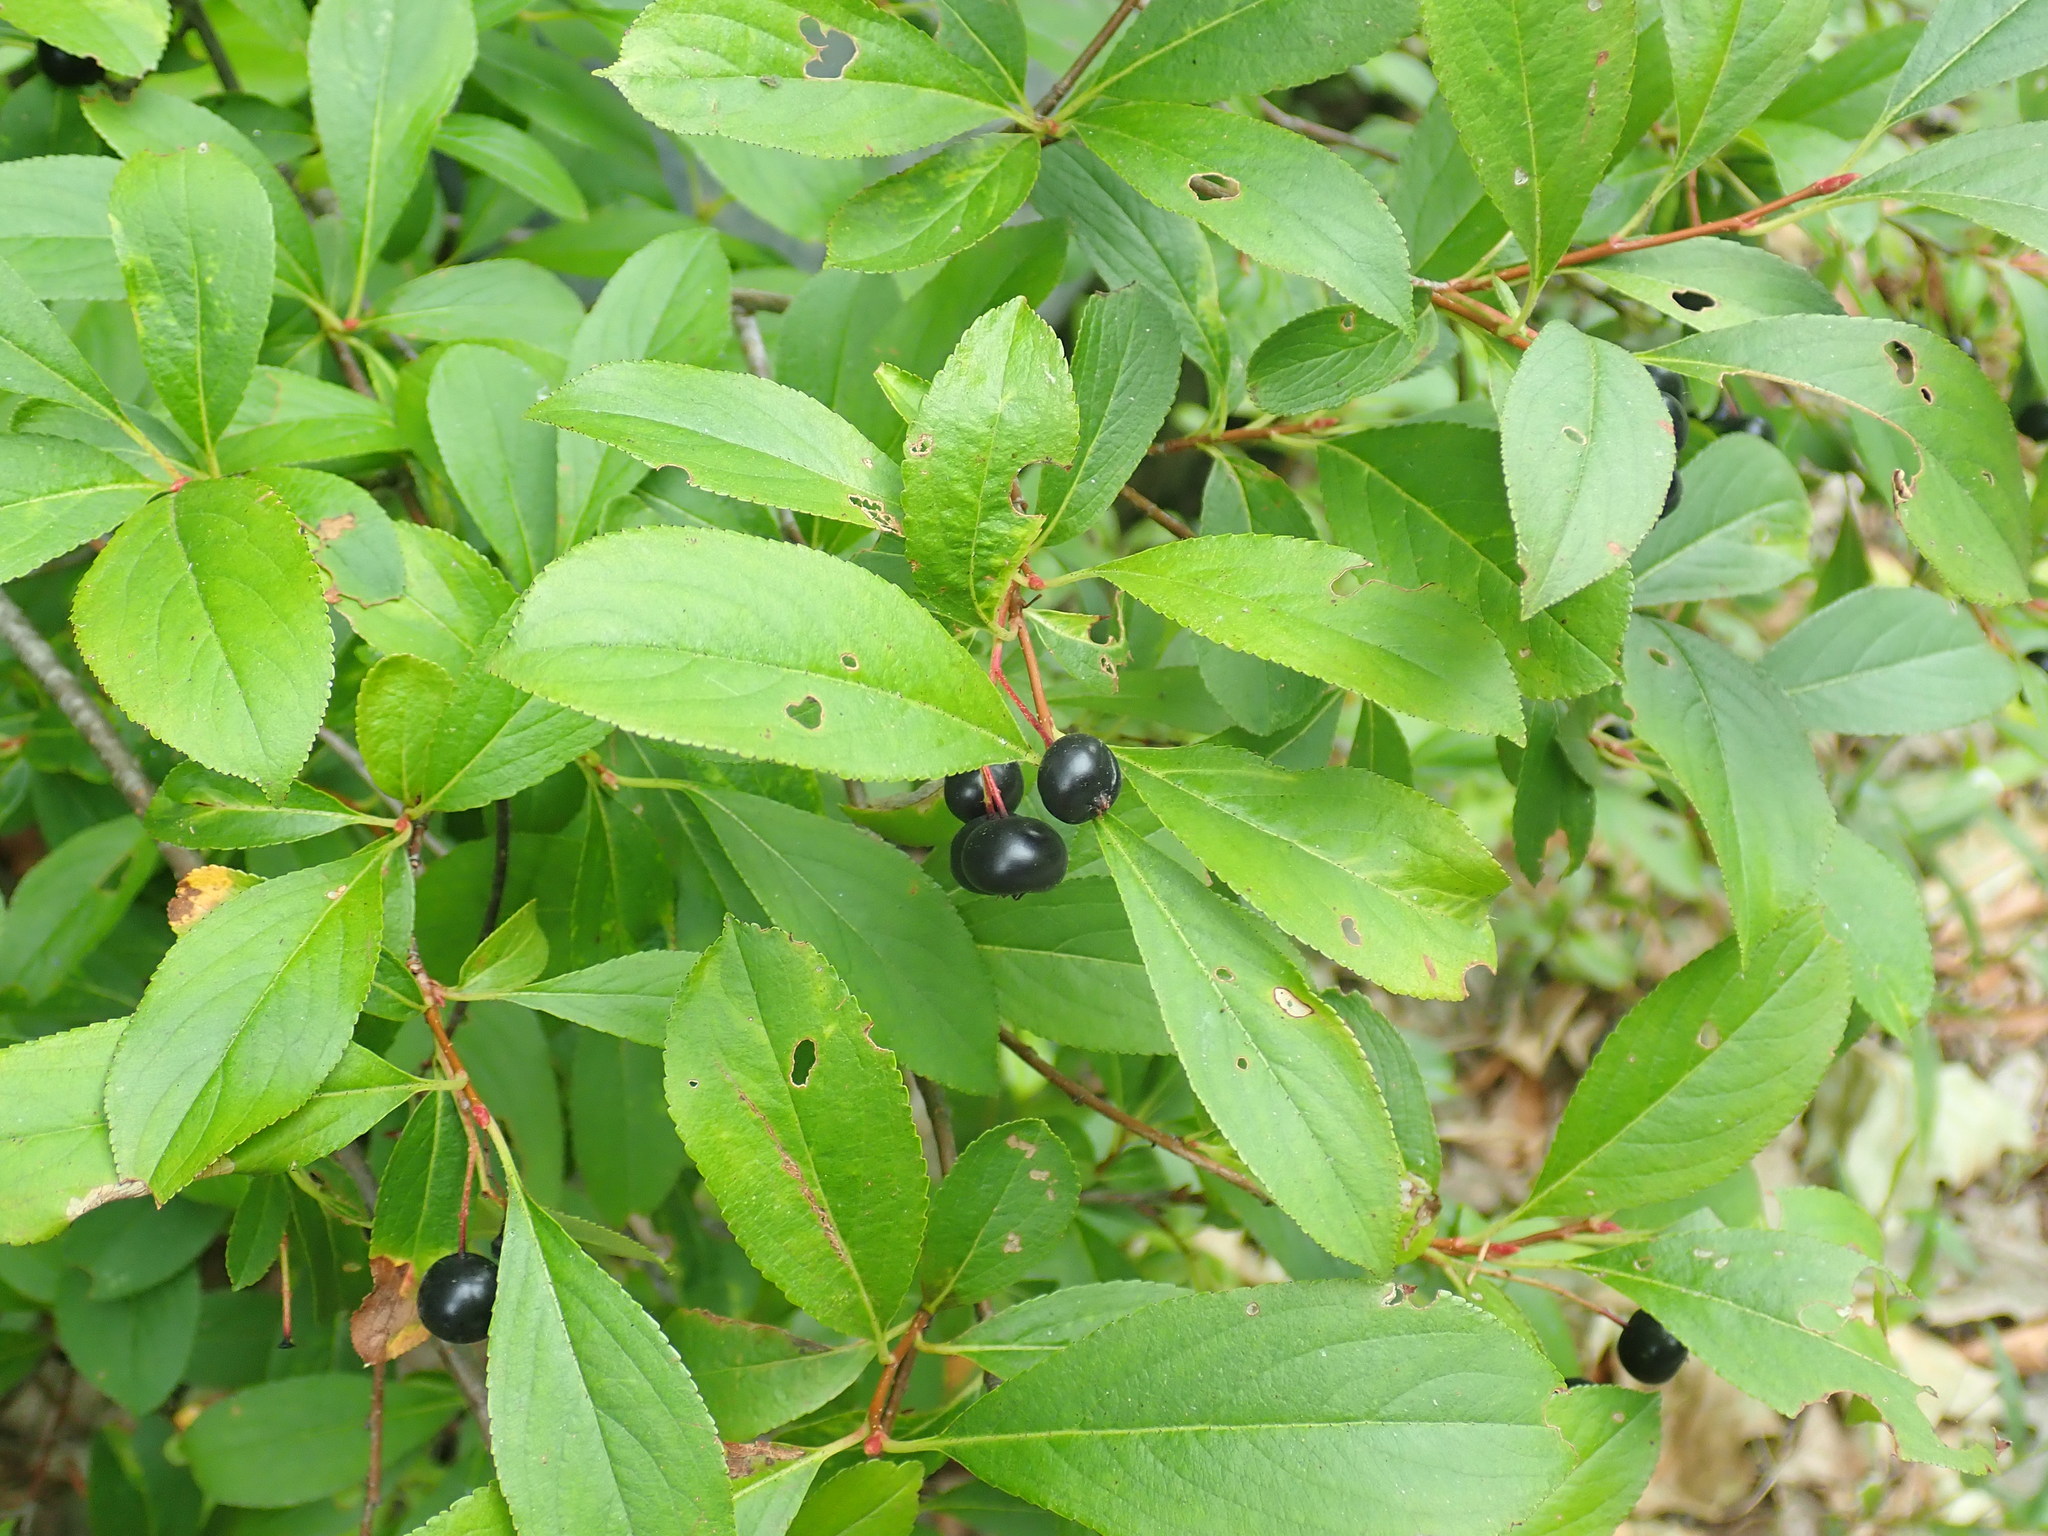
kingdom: Plantae
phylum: Tracheophyta
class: Magnoliopsida
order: Rosales
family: Rosaceae
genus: Aronia
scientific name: Aronia melanocarpa
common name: Black chokeberry
